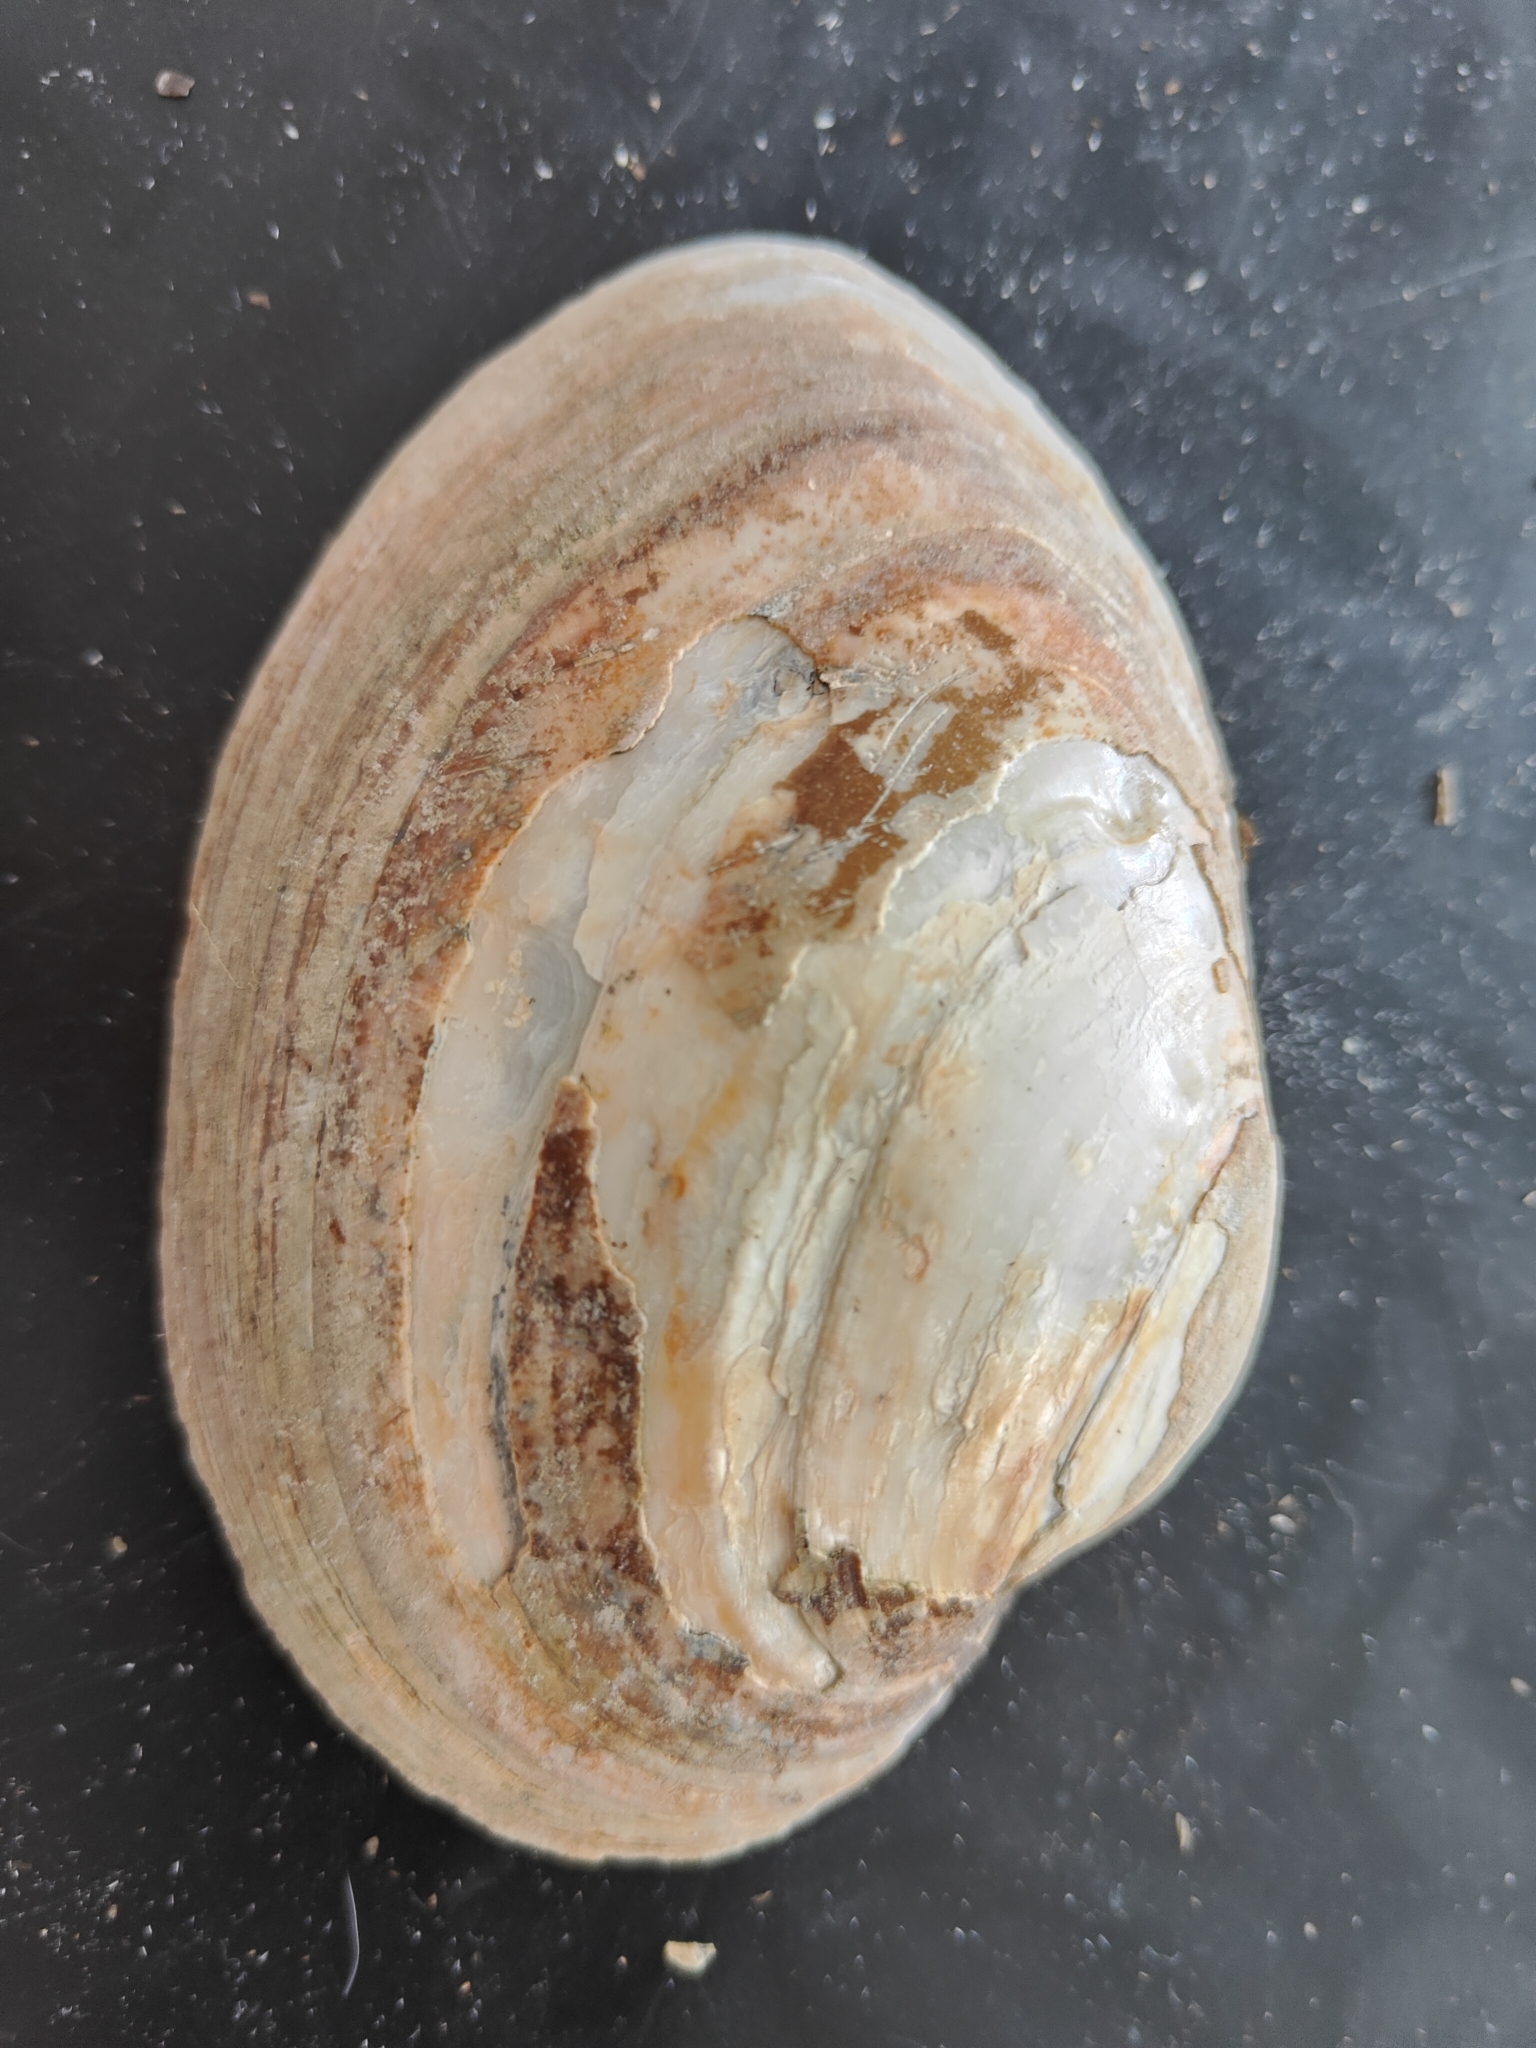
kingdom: Animalia
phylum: Mollusca
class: Bivalvia
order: Unionida
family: Unionidae
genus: Lampsilis
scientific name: Lampsilis cardium
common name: Plain pocketbook
